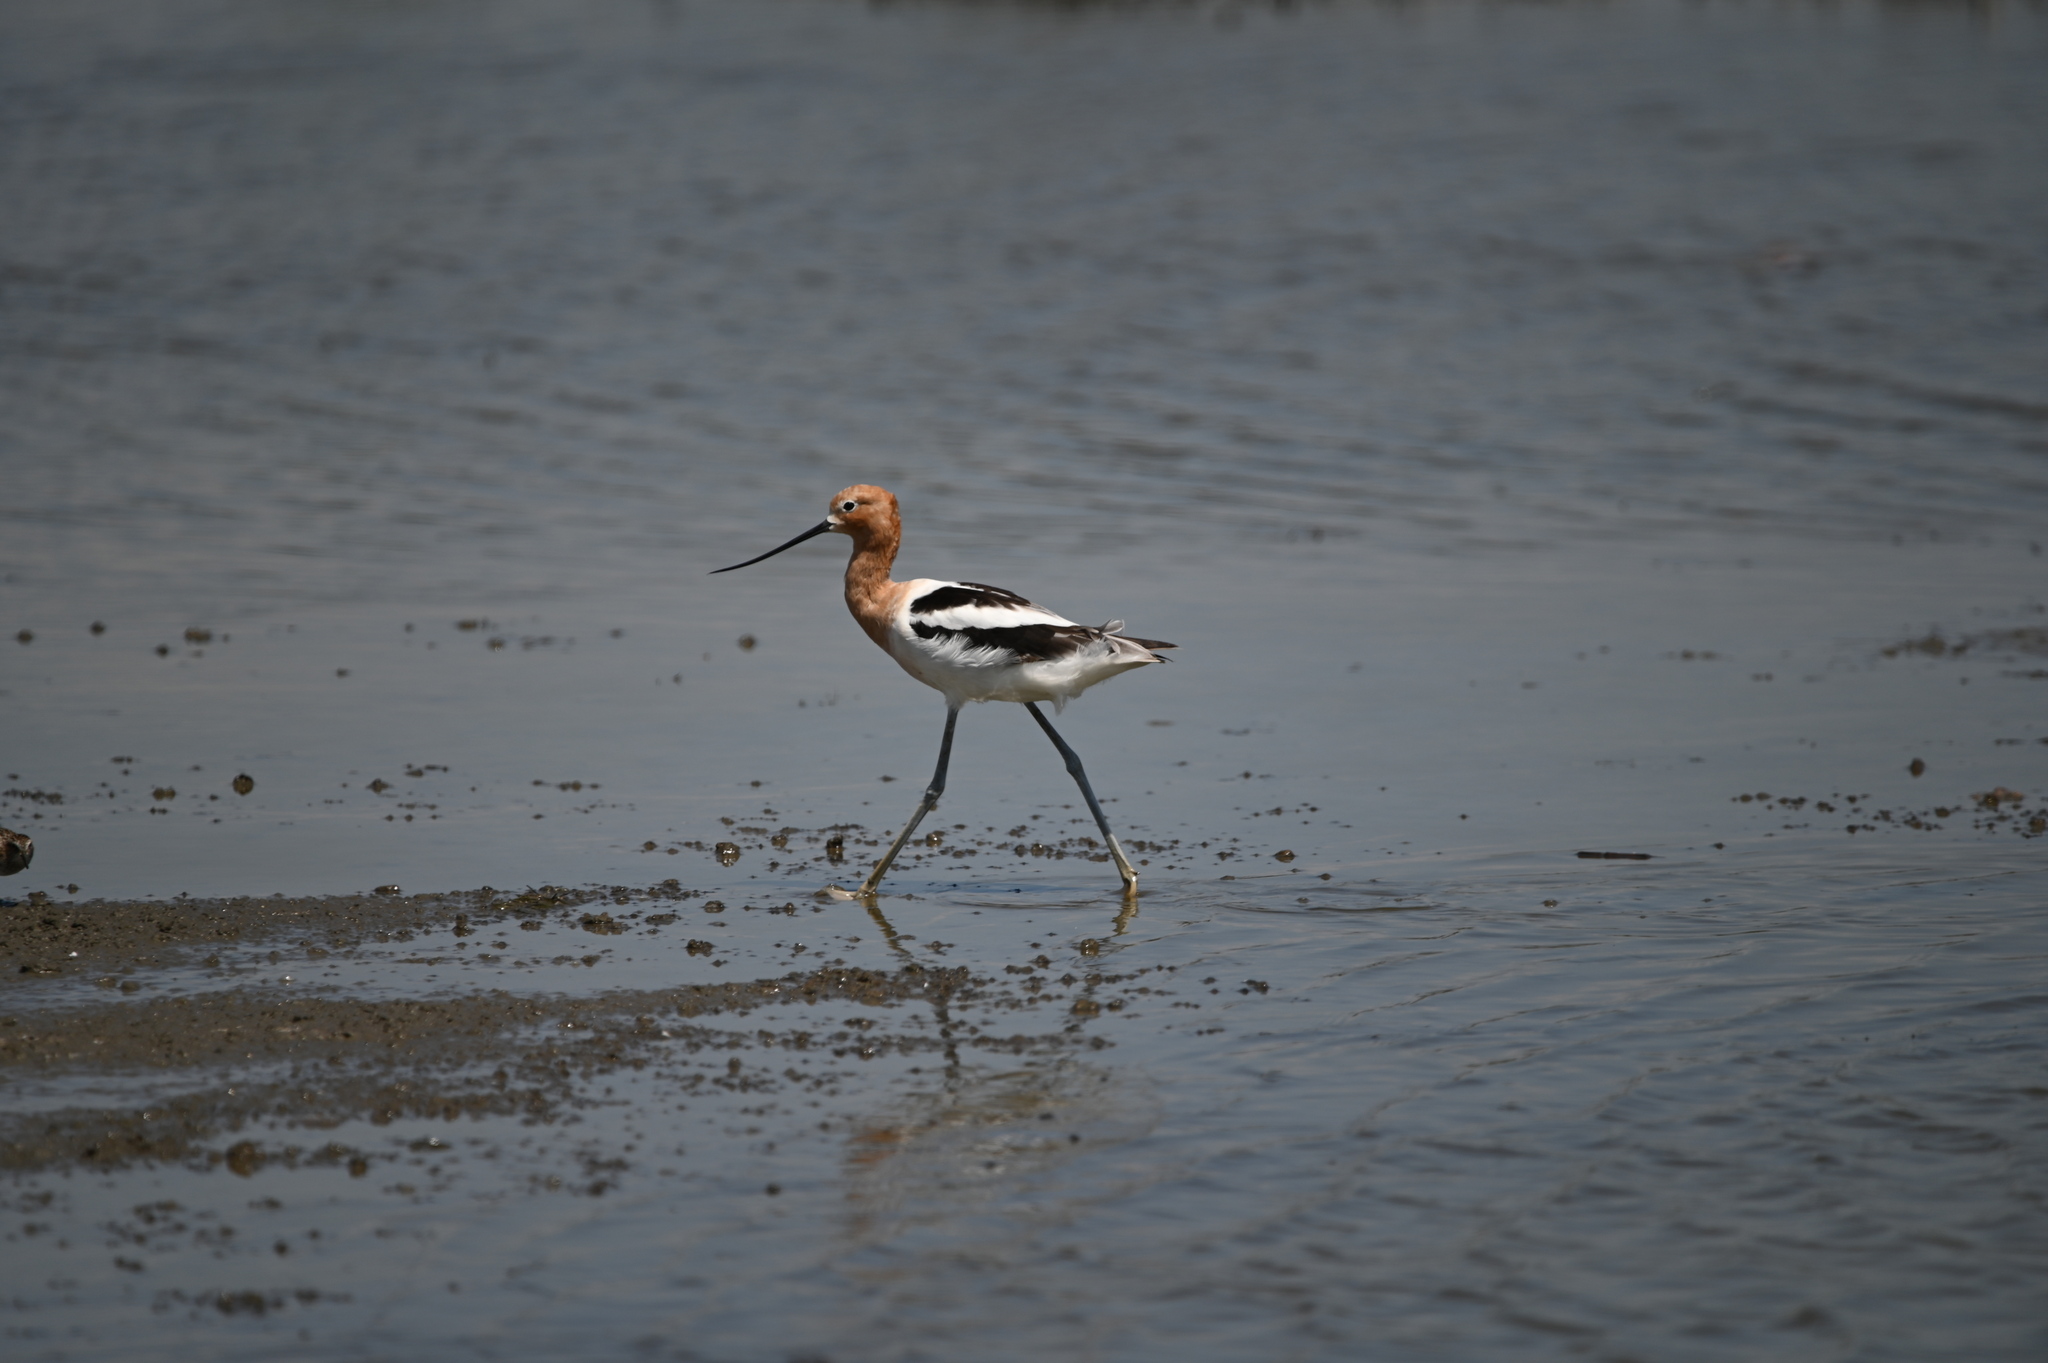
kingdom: Animalia
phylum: Chordata
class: Aves
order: Charadriiformes
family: Recurvirostridae
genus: Recurvirostra
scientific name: Recurvirostra americana
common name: American avocet
